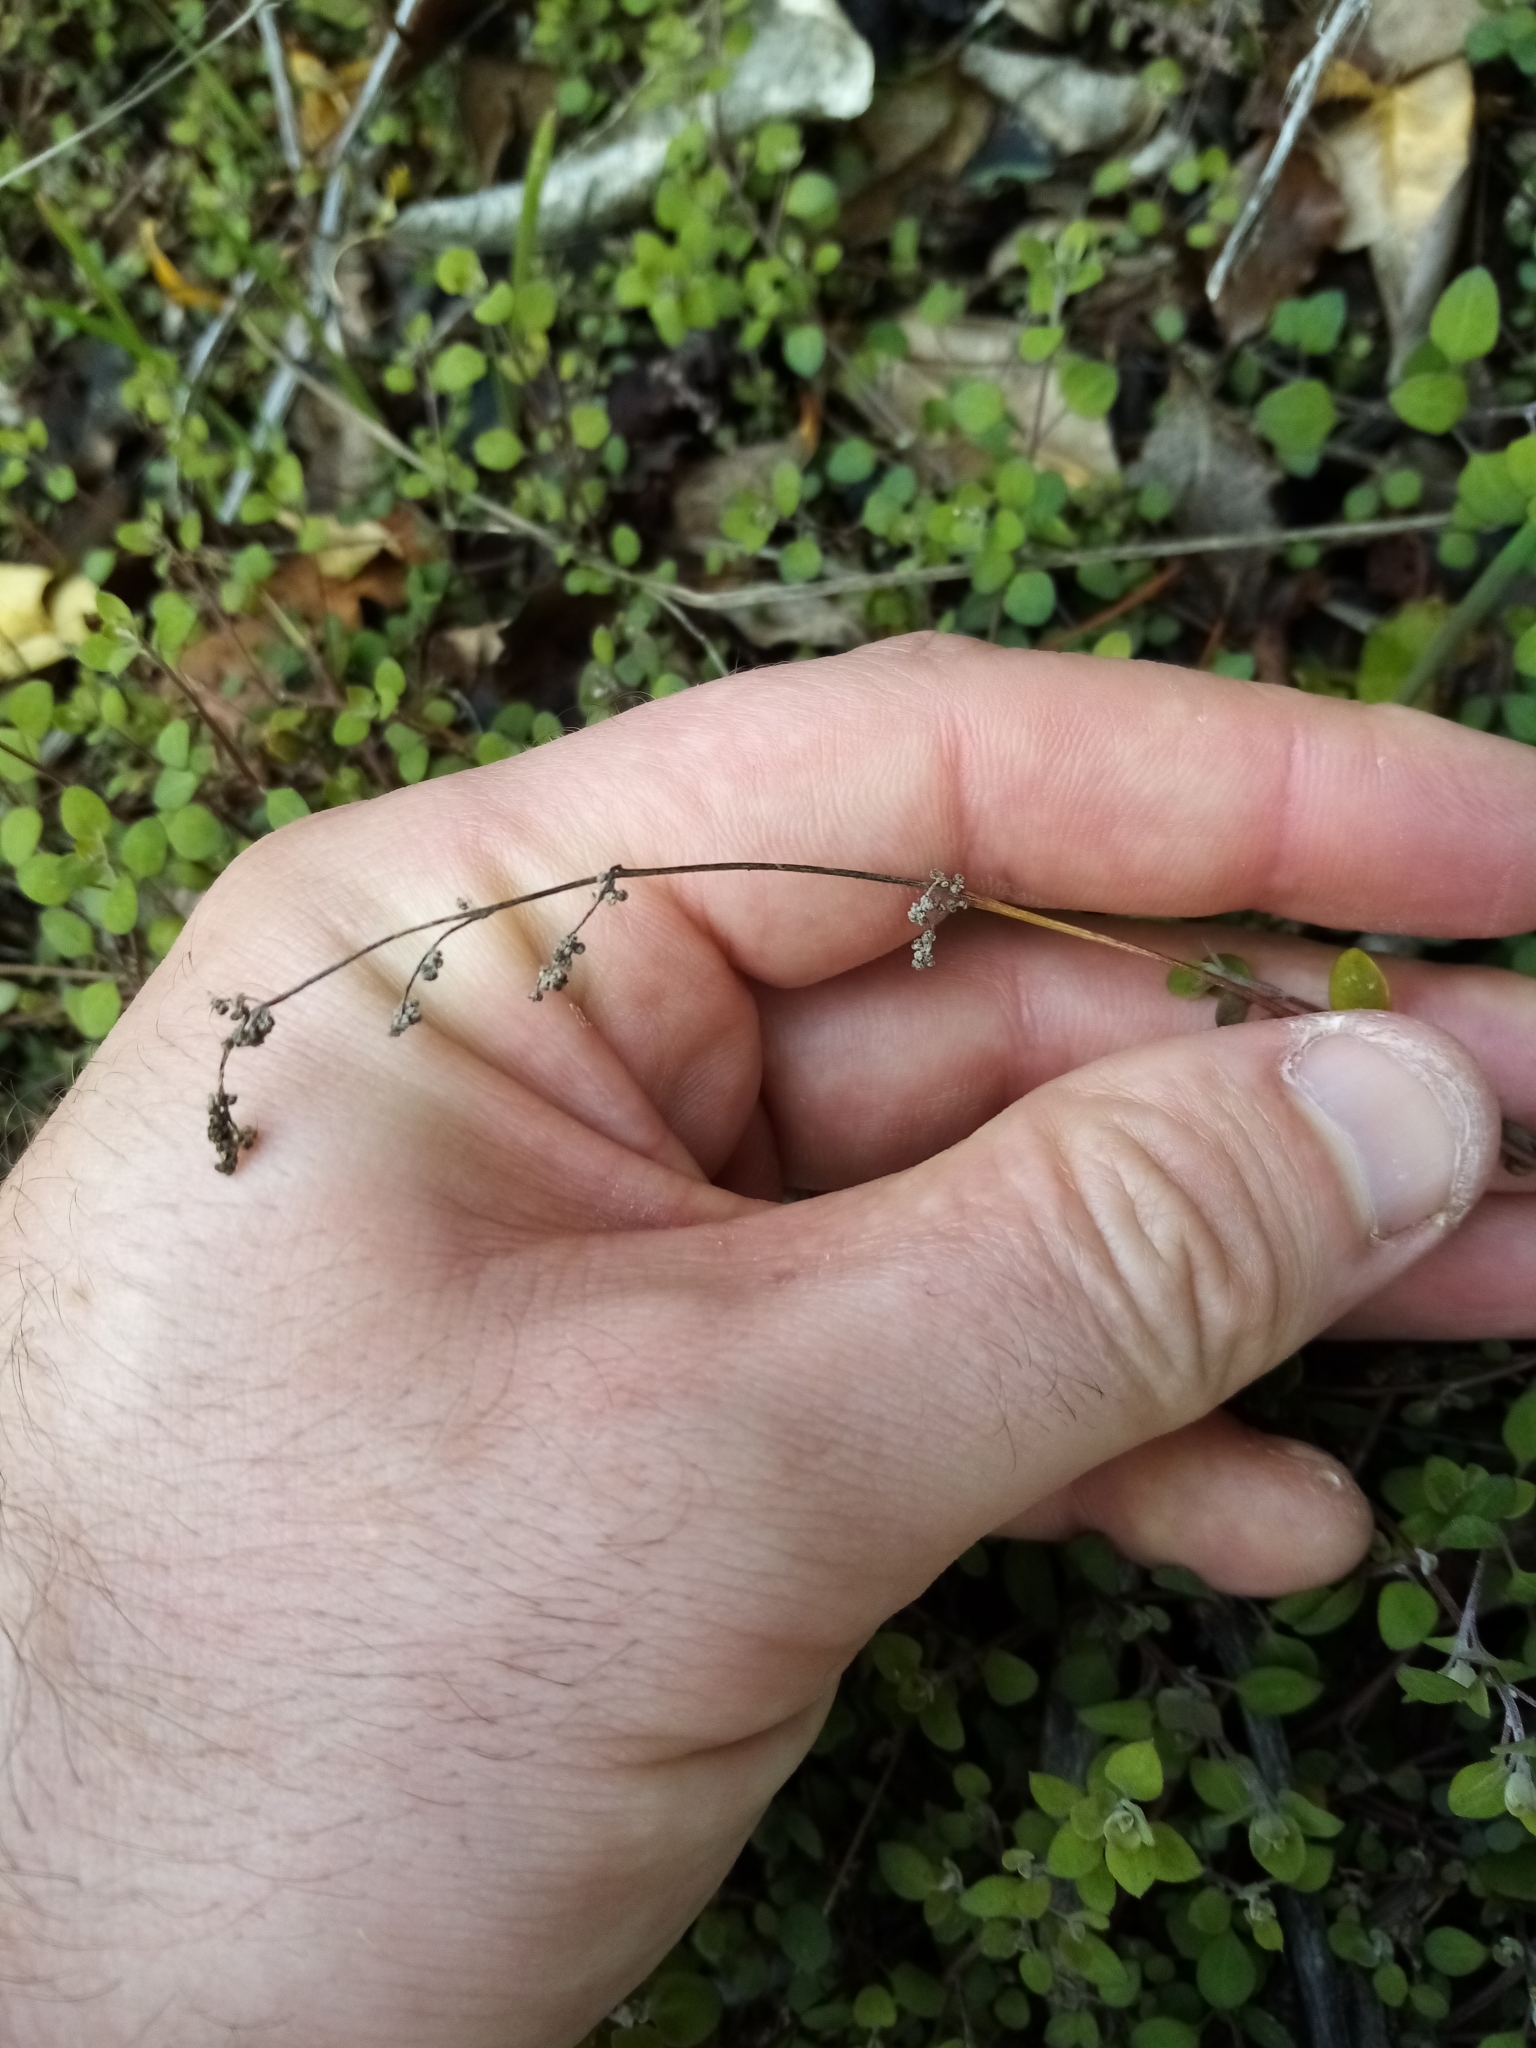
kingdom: Plantae
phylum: Tracheophyta
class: Magnoliopsida
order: Caryophyllales
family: Amaranthaceae
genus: Chenopodium
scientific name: Chenopodium allanii
